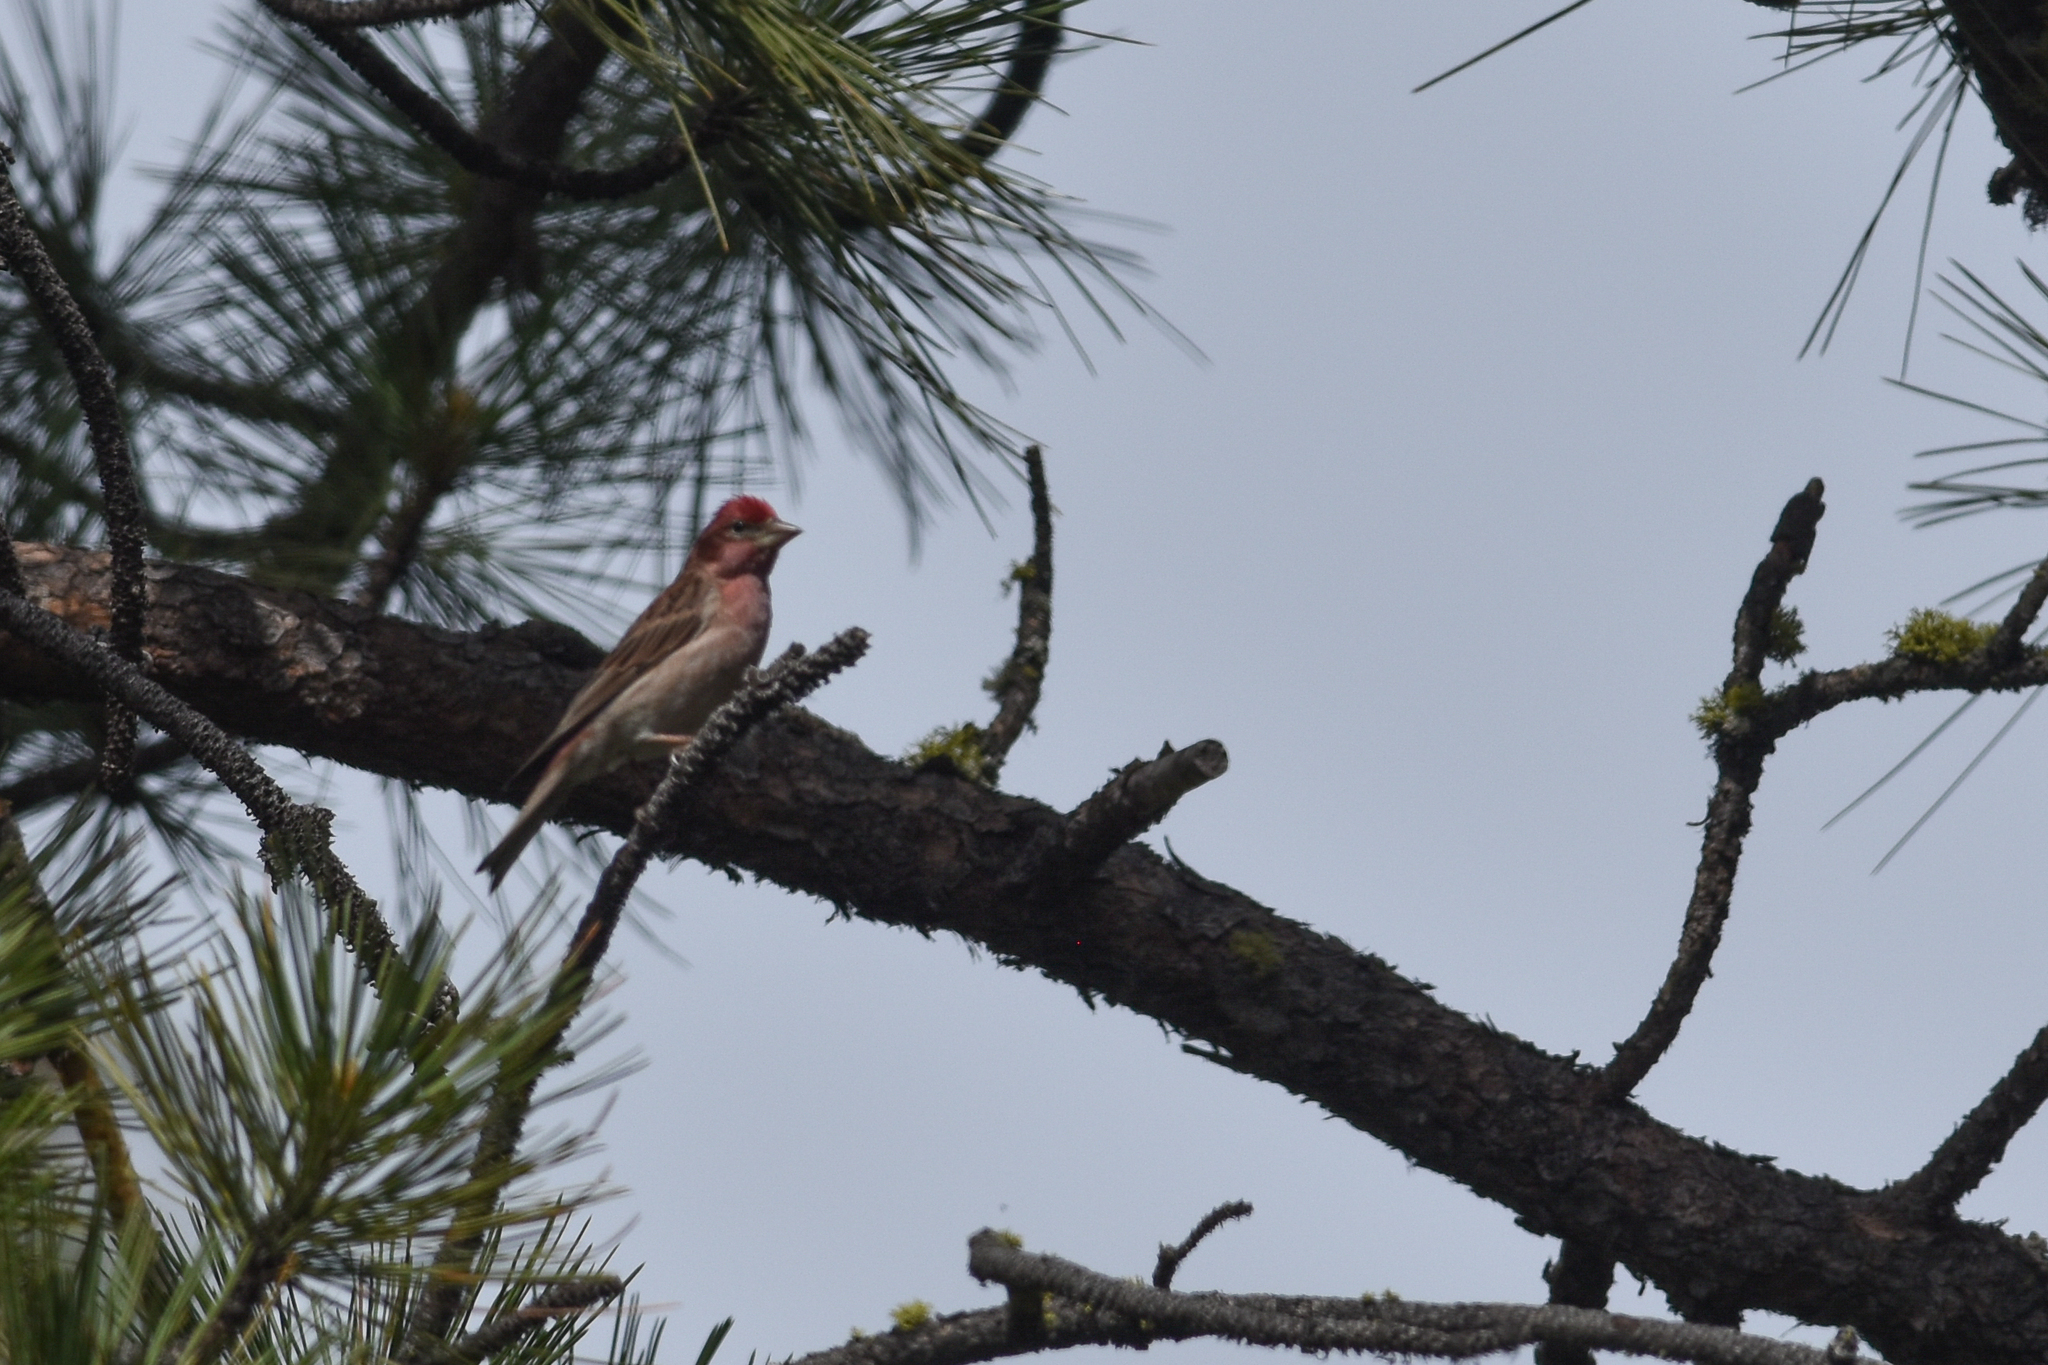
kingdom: Animalia
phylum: Chordata
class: Aves
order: Passeriformes
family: Fringillidae
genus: Haemorhous
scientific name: Haemorhous cassinii
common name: Cassin's finch
